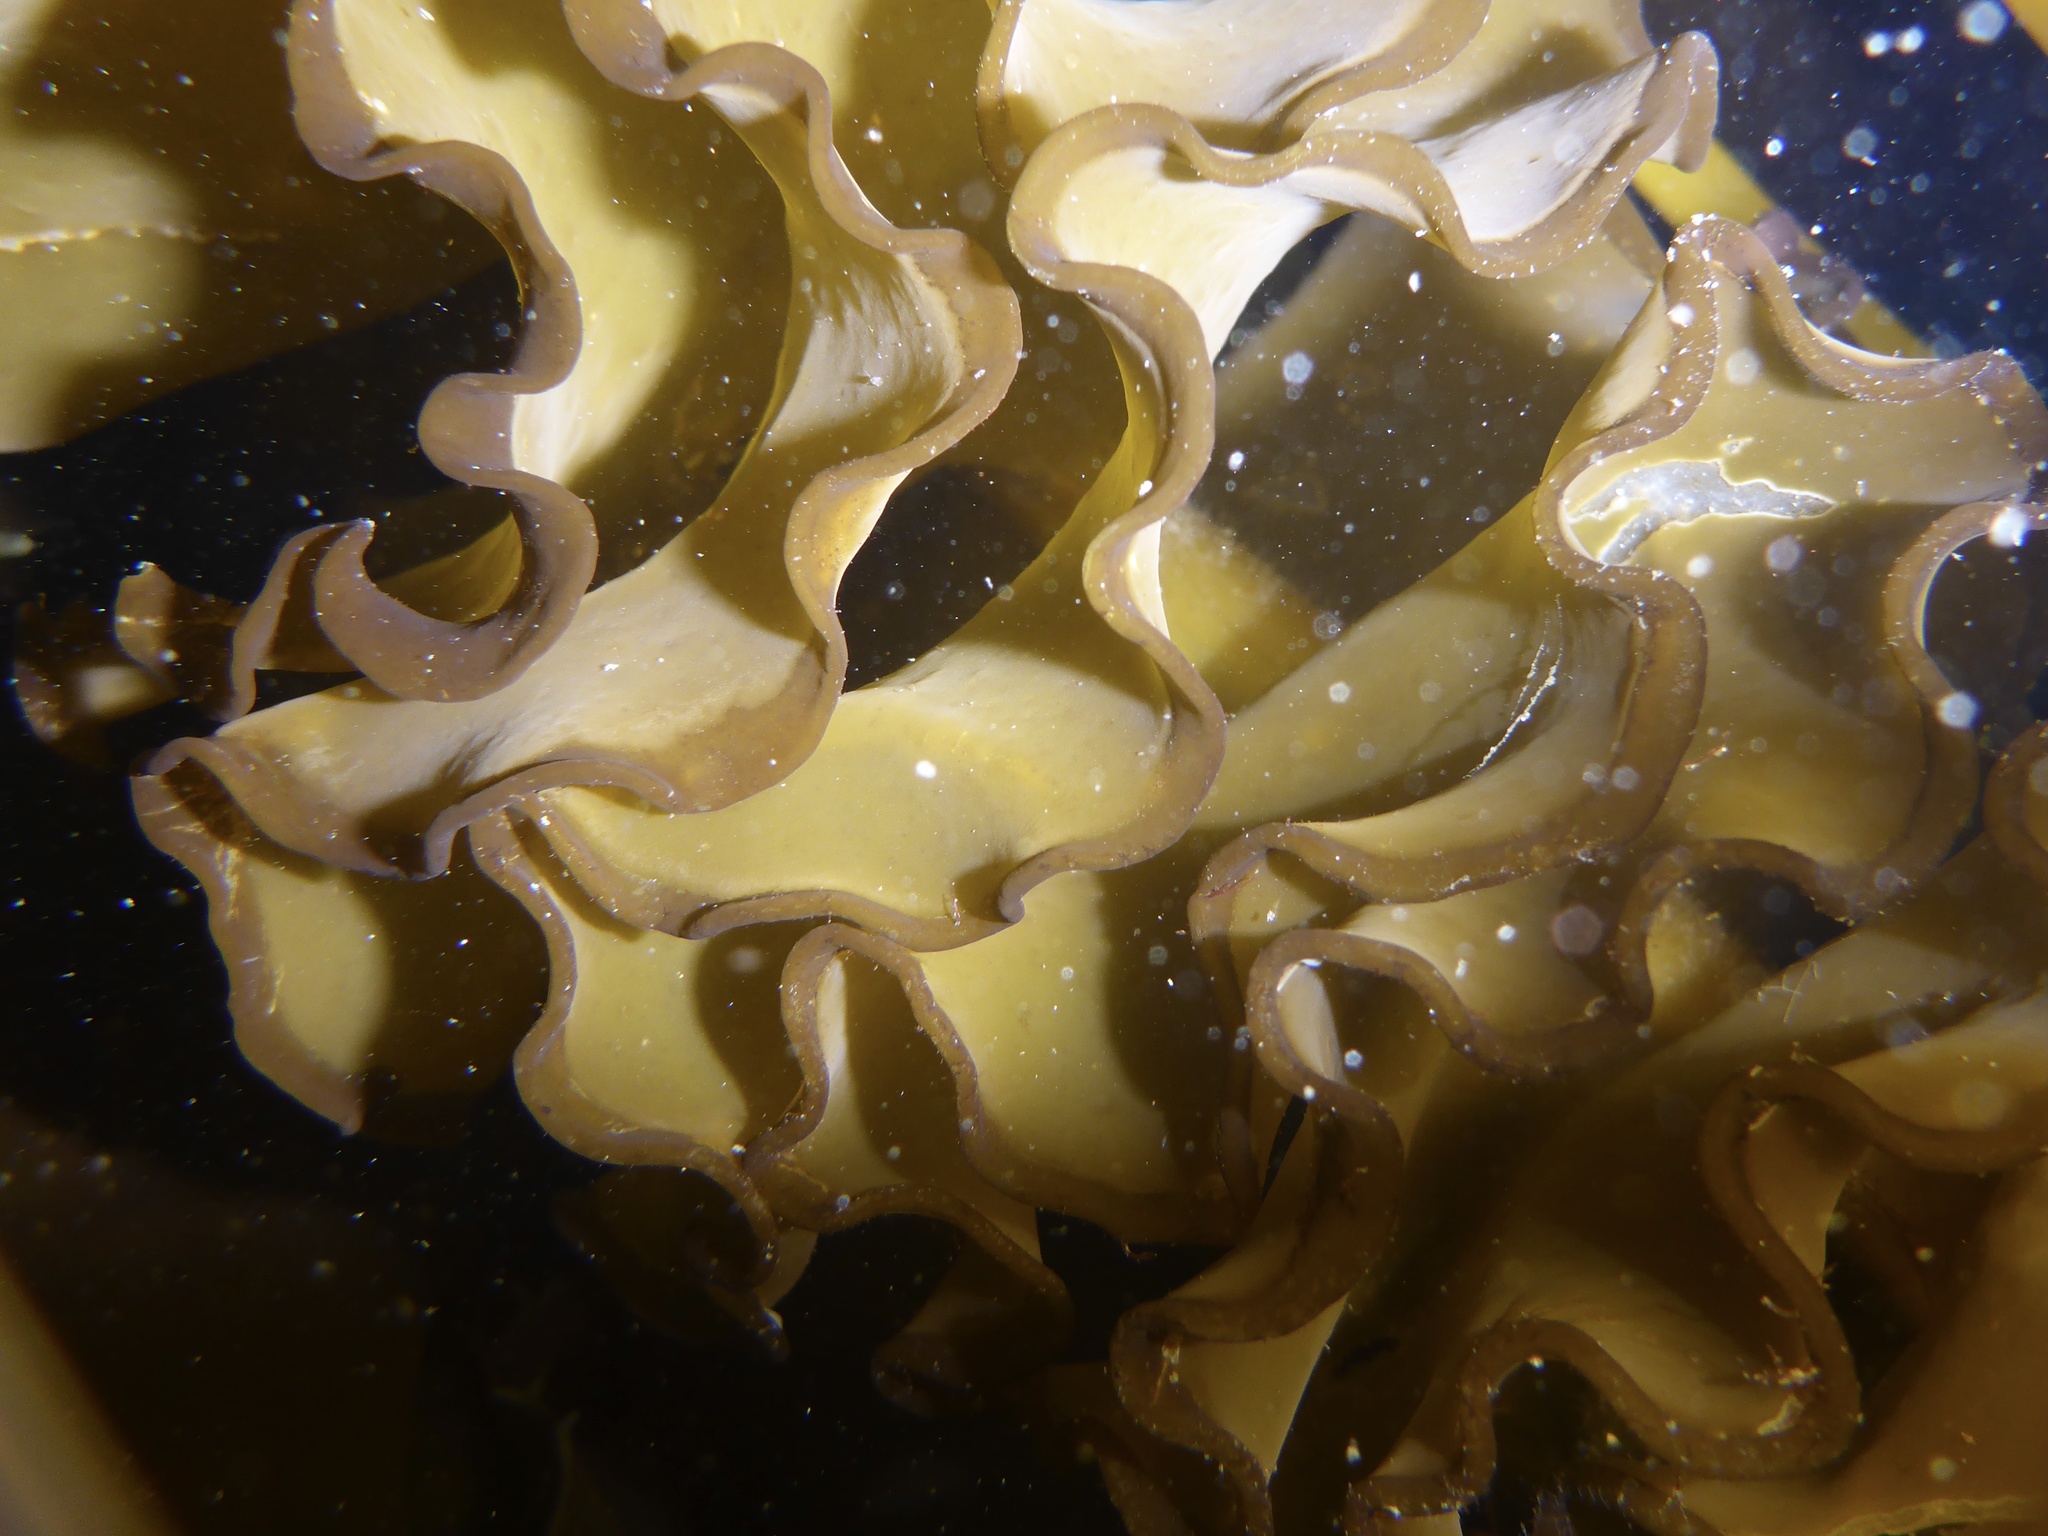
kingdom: Chromista
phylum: Ochrophyta
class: Phaeophyceae
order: Laminariales
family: Alariaceae
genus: Undaria
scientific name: Undaria pinnatifida
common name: Asian kelp
